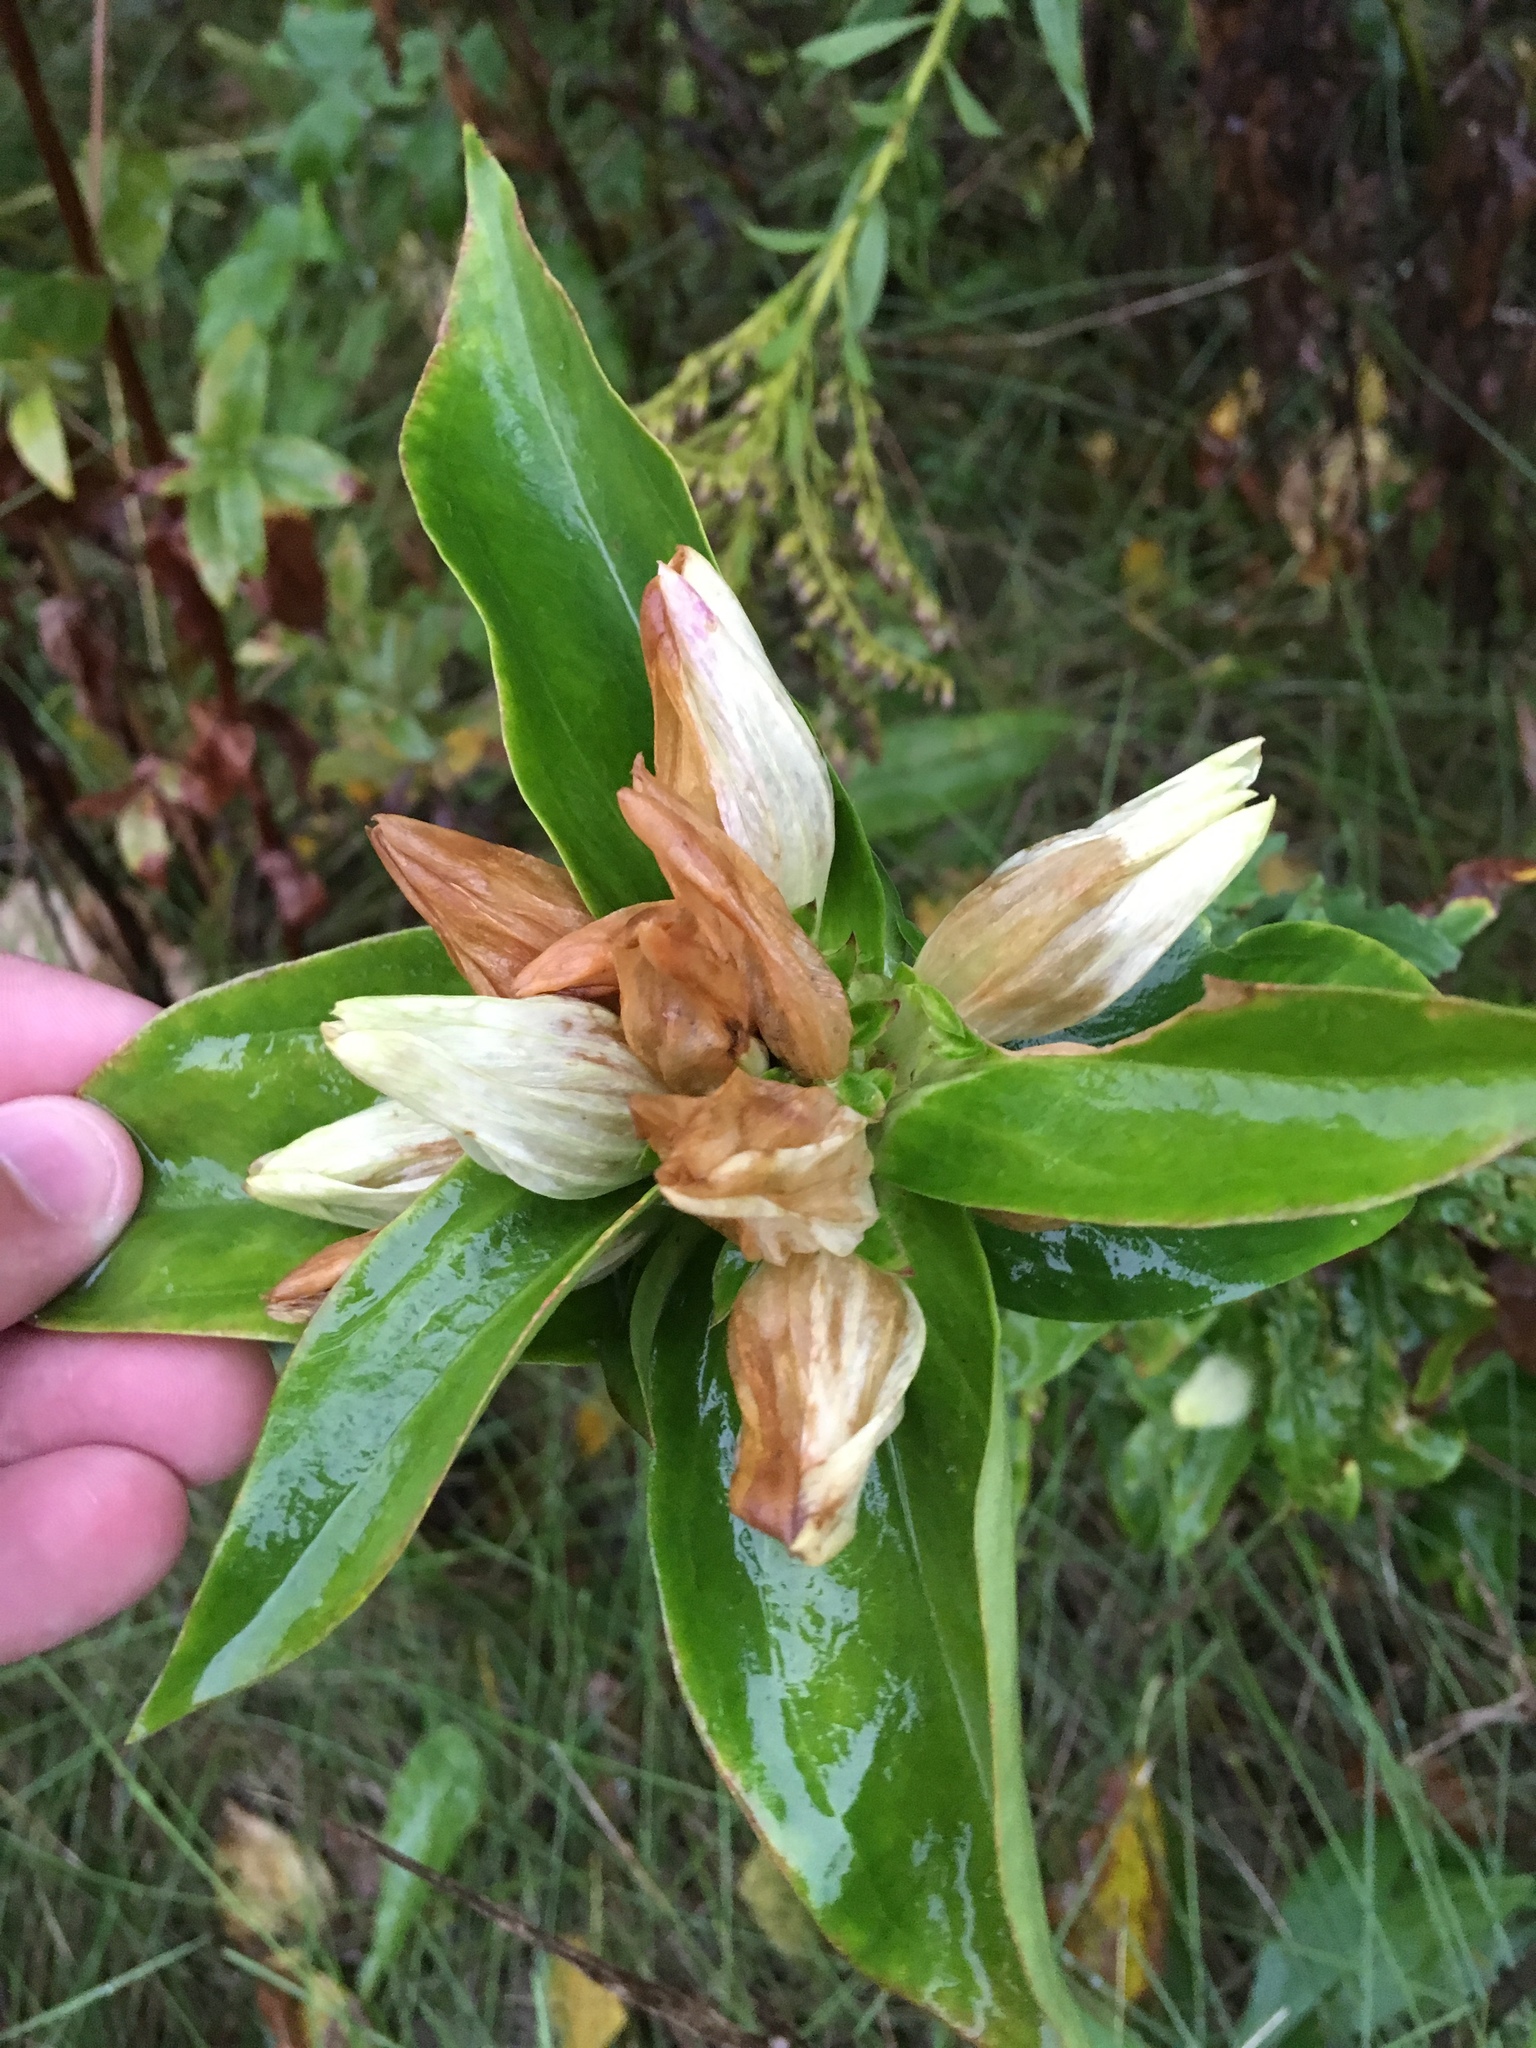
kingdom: Plantae
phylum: Tracheophyta
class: Magnoliopsida
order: Gentianales
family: Gentianaceae
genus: Gentiana
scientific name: Gentiana alba
